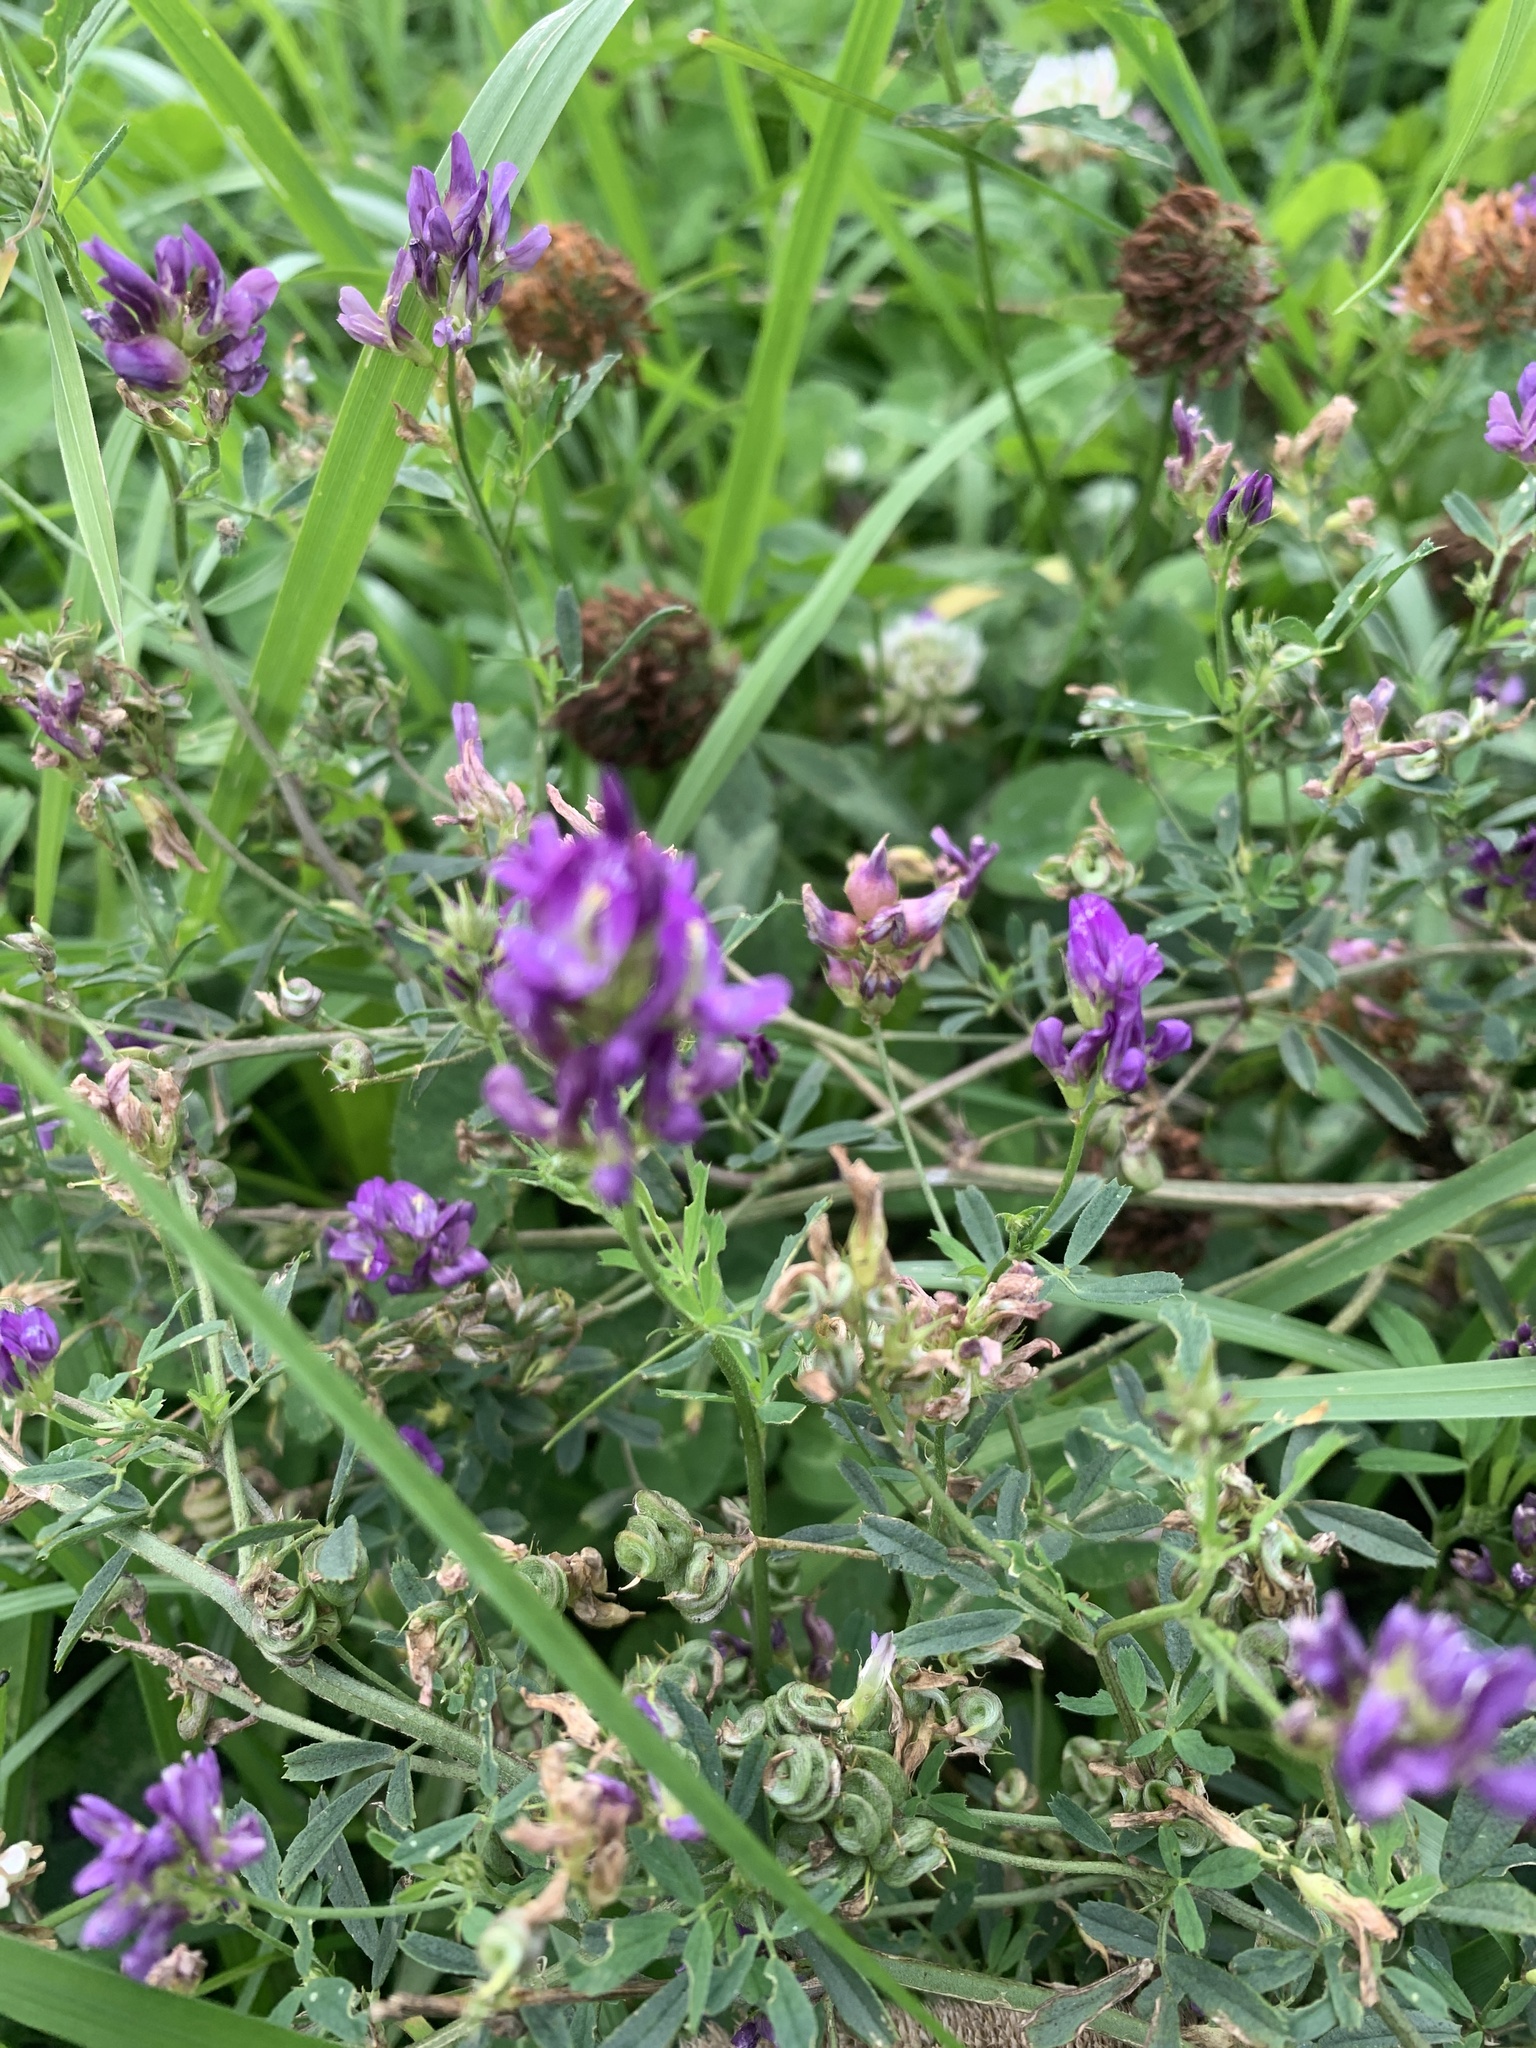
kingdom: Plantae
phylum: Tracheophyta
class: Magnoliopsida
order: Fabales
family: Fabaceae
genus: Medicago
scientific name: Medicago sativa
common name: Alfalfa
